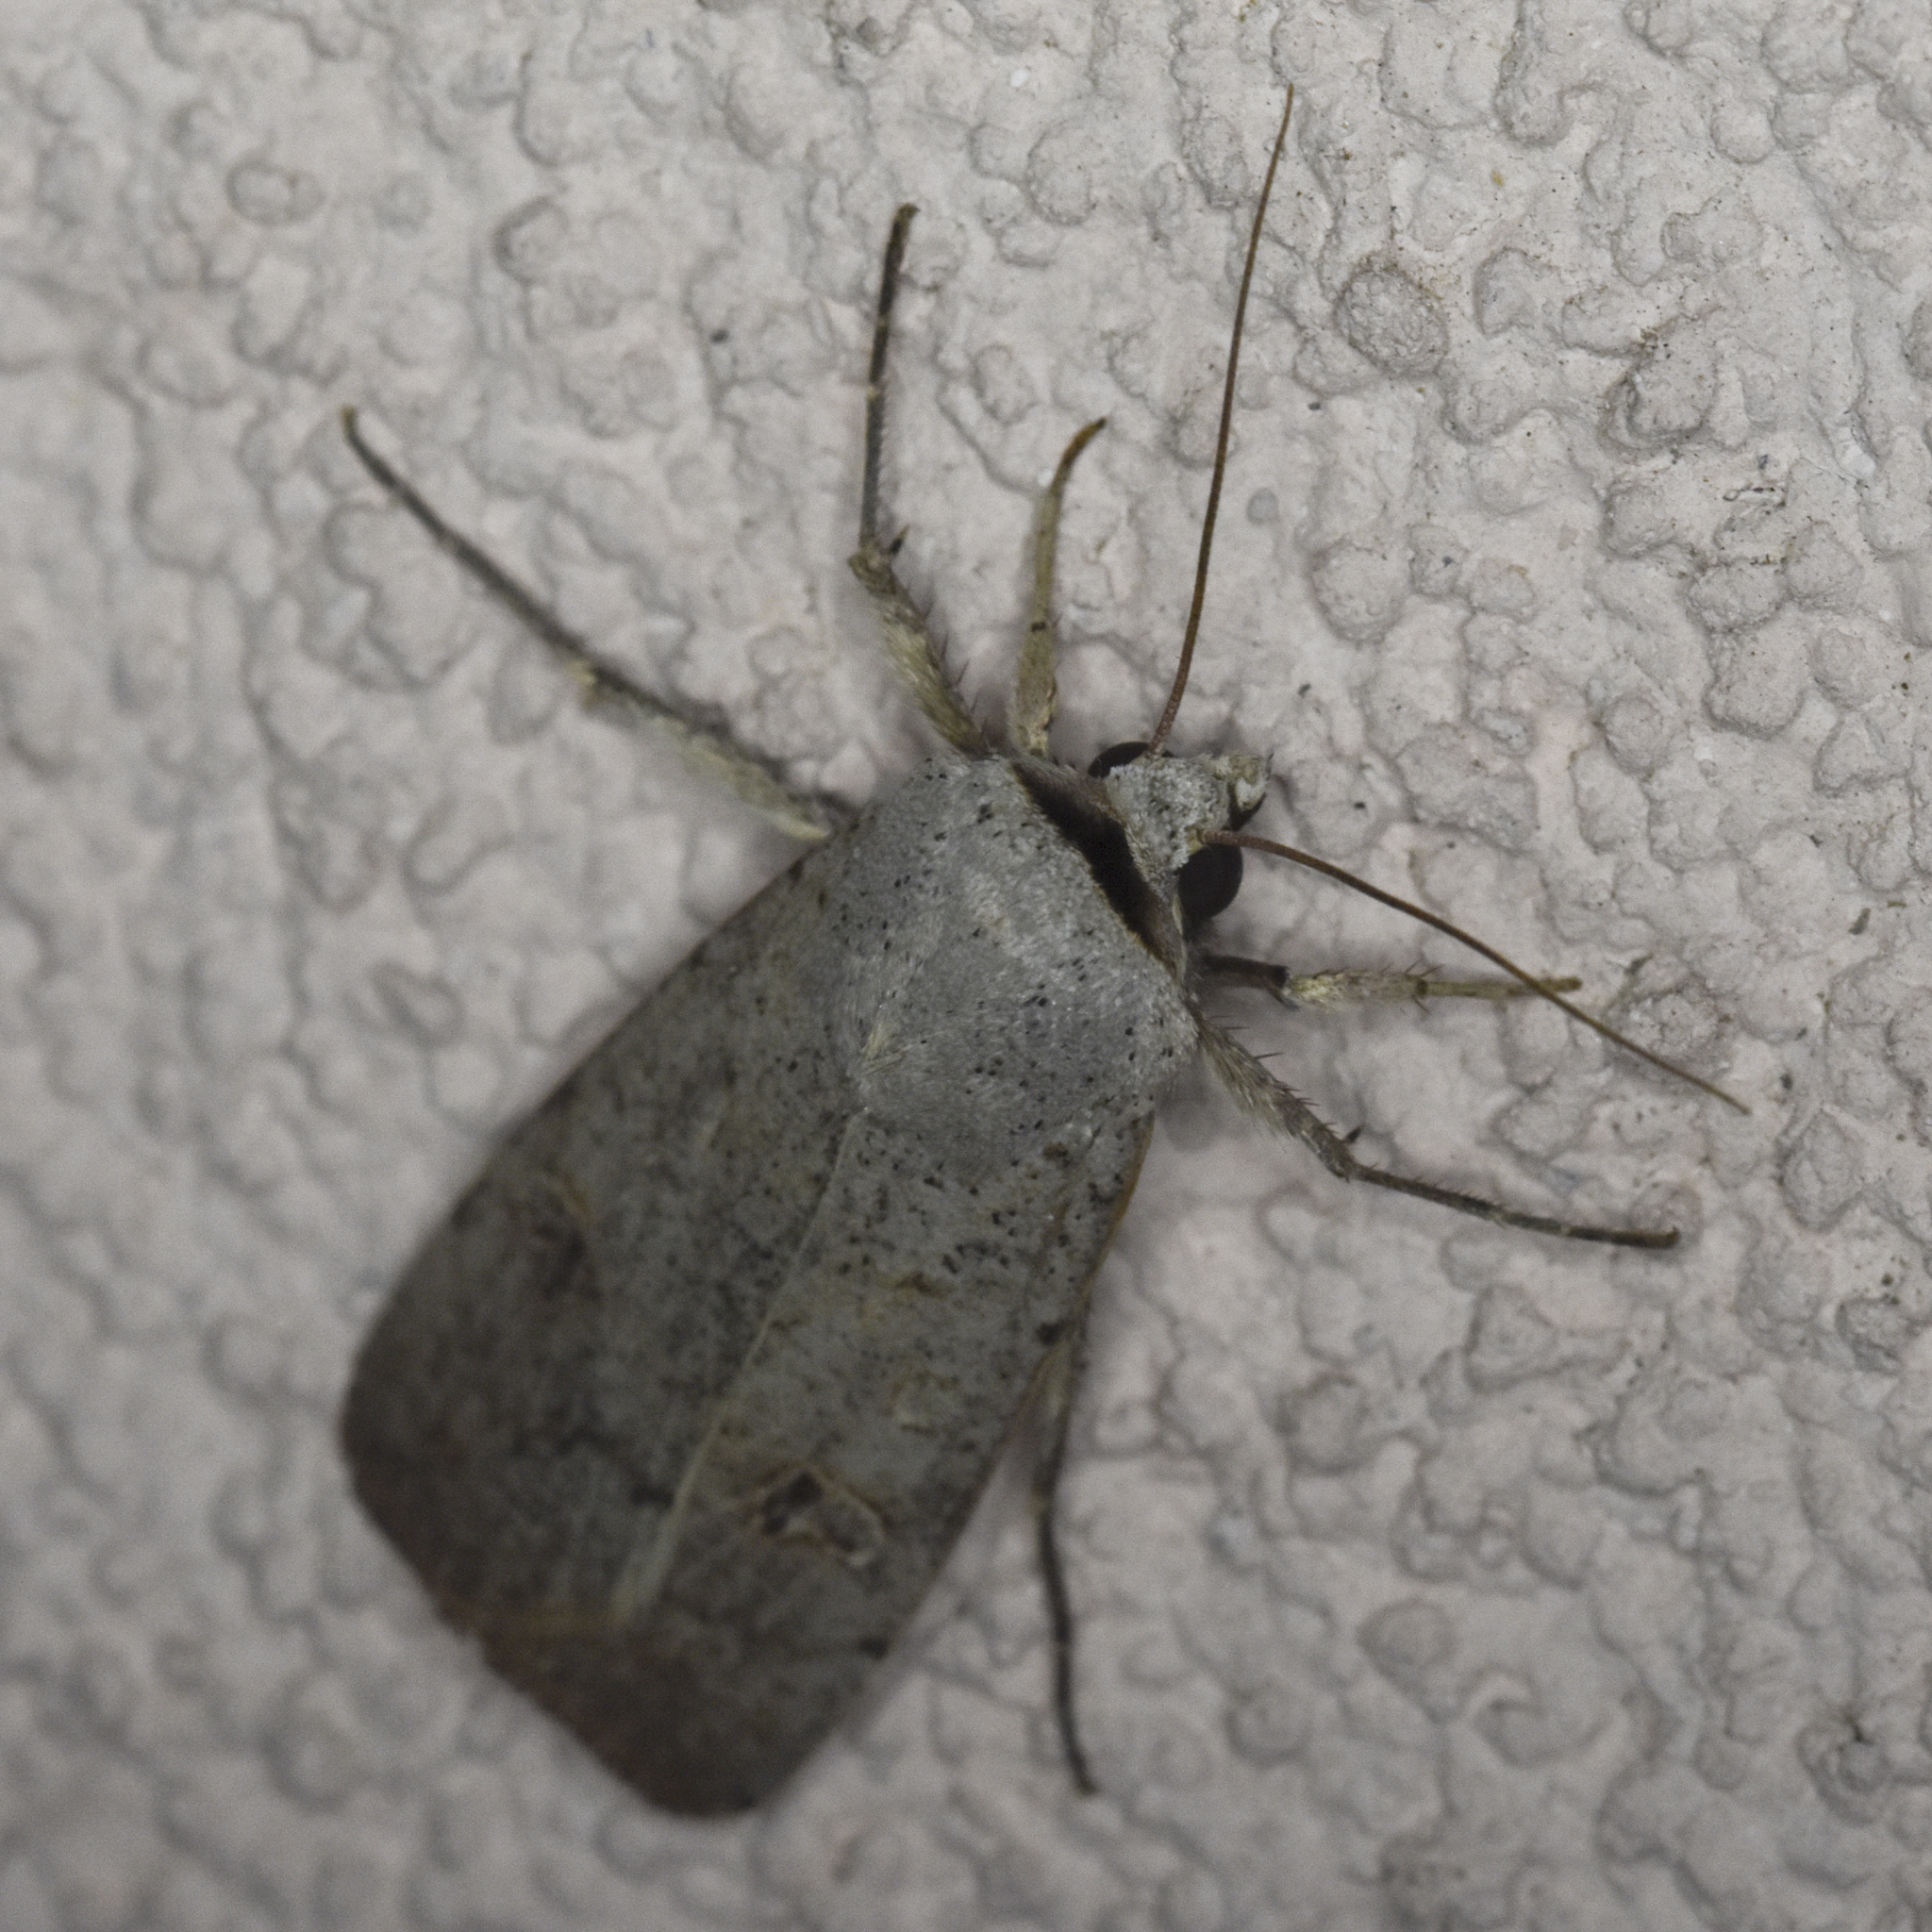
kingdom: Animalia
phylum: Arthropoda
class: Insecta
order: Lepidoptera
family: Noctuidae
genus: Anicla
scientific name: Anicla infecta
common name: Green cutworm
